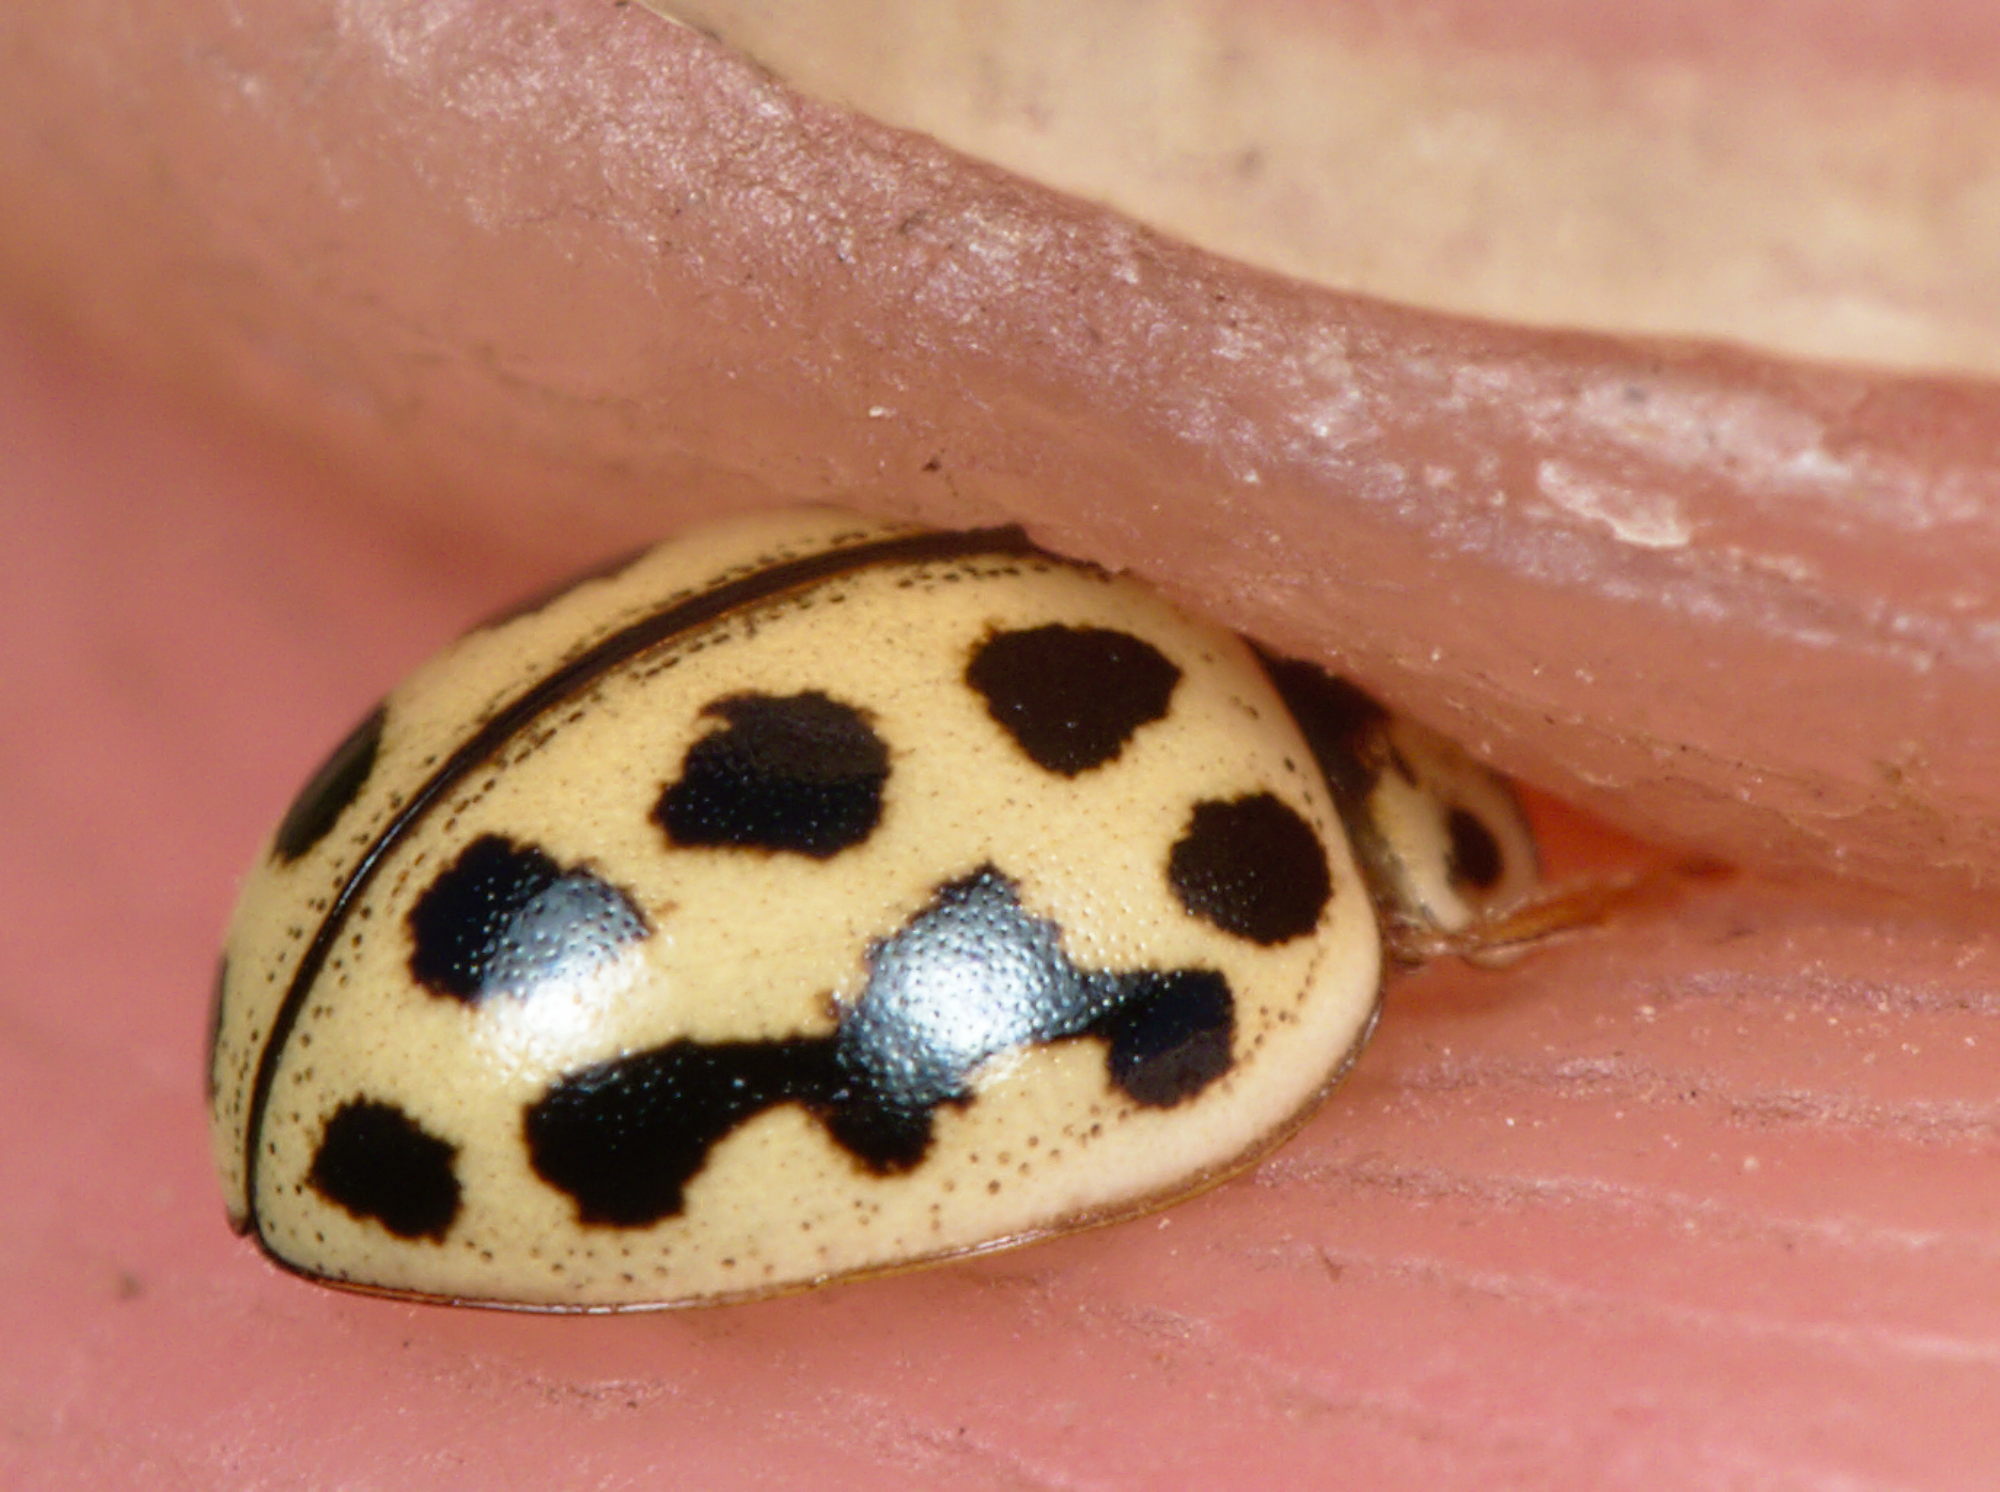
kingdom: Animalia
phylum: Arthropoda
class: Insecta
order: Coleoptera
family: Coccinellidae
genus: Tytthaspis
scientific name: Tytthaspis sedecimpunctata
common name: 16-spot ladybird
